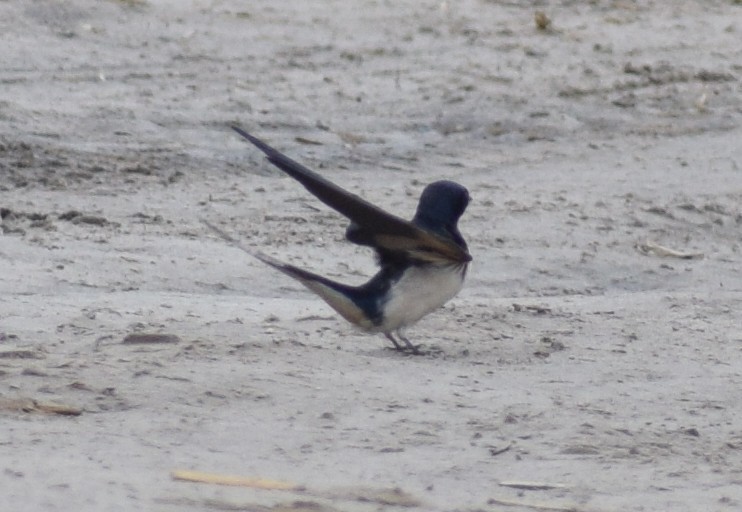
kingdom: Animalia
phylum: Chordata
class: Aves
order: Passeriformes
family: Hirundinidae
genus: Hirundo
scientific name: Hirundo rustica
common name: Barn swallow
